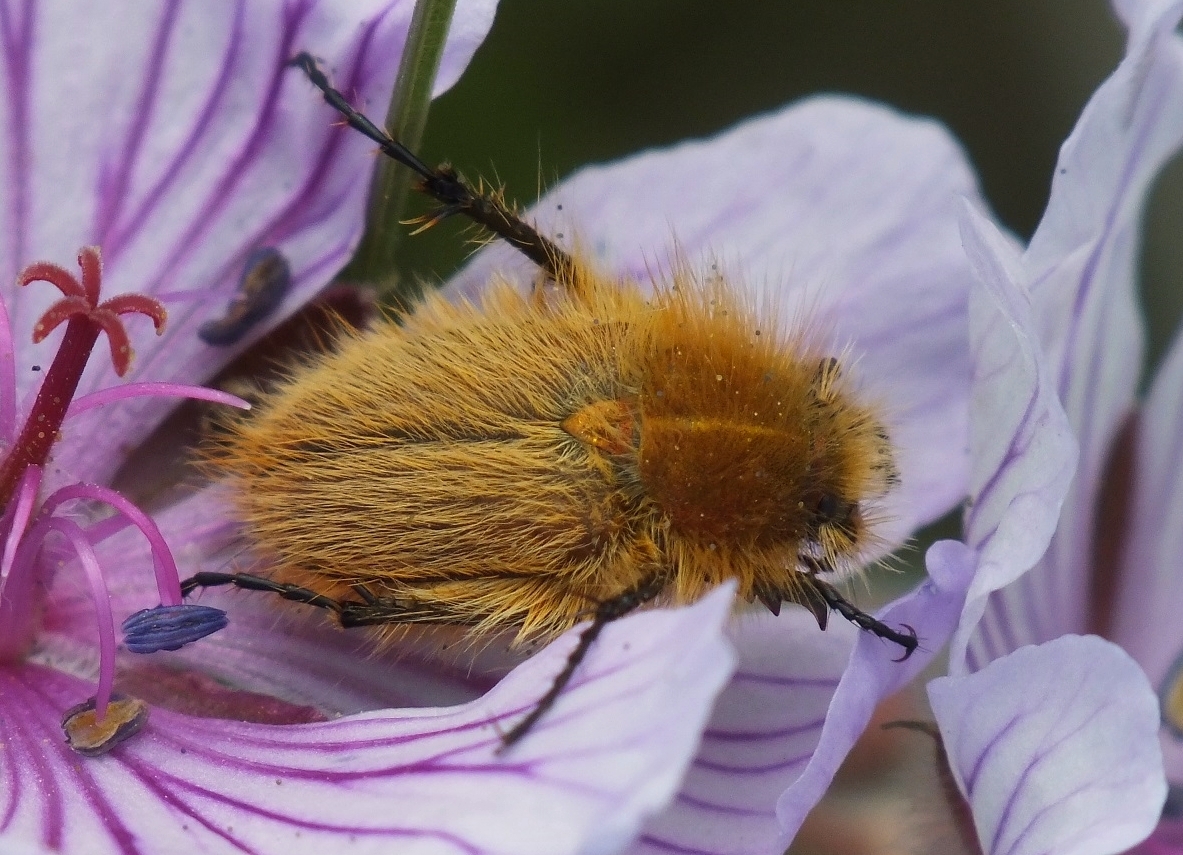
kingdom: Animalia
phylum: Arthropoda
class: Insecta
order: Coleoptera
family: Glaphyridae
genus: Pygopleurus
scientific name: Pygopleurus vulpes
